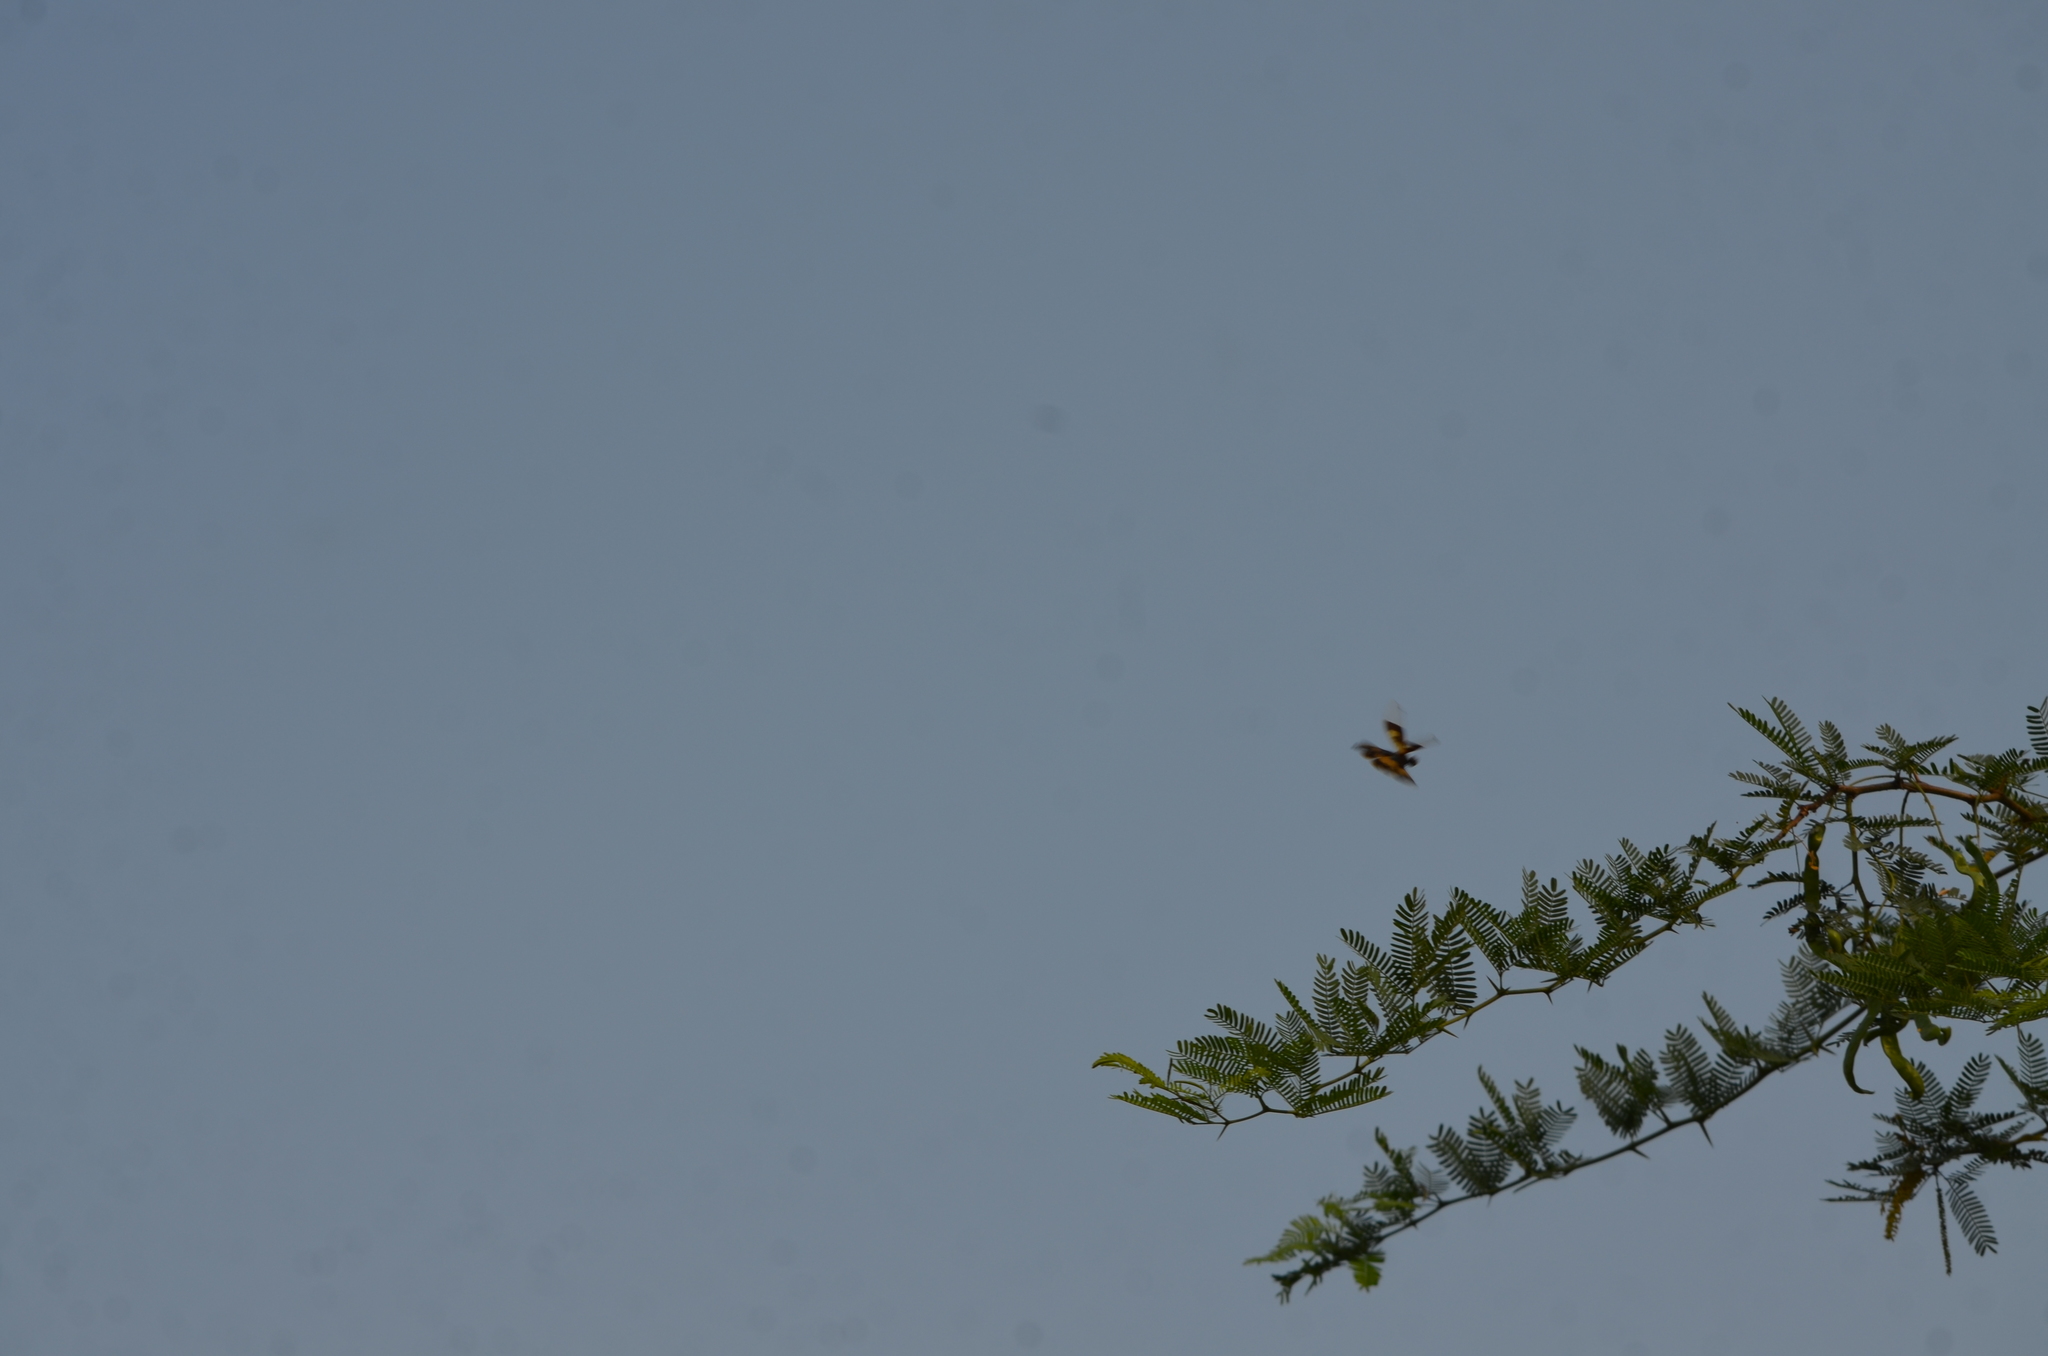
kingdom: Animalia
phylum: Arthropoda
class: Insecta
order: Odonata
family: Libellulidae
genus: Rhyothemis
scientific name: Rhyothemis variegata
